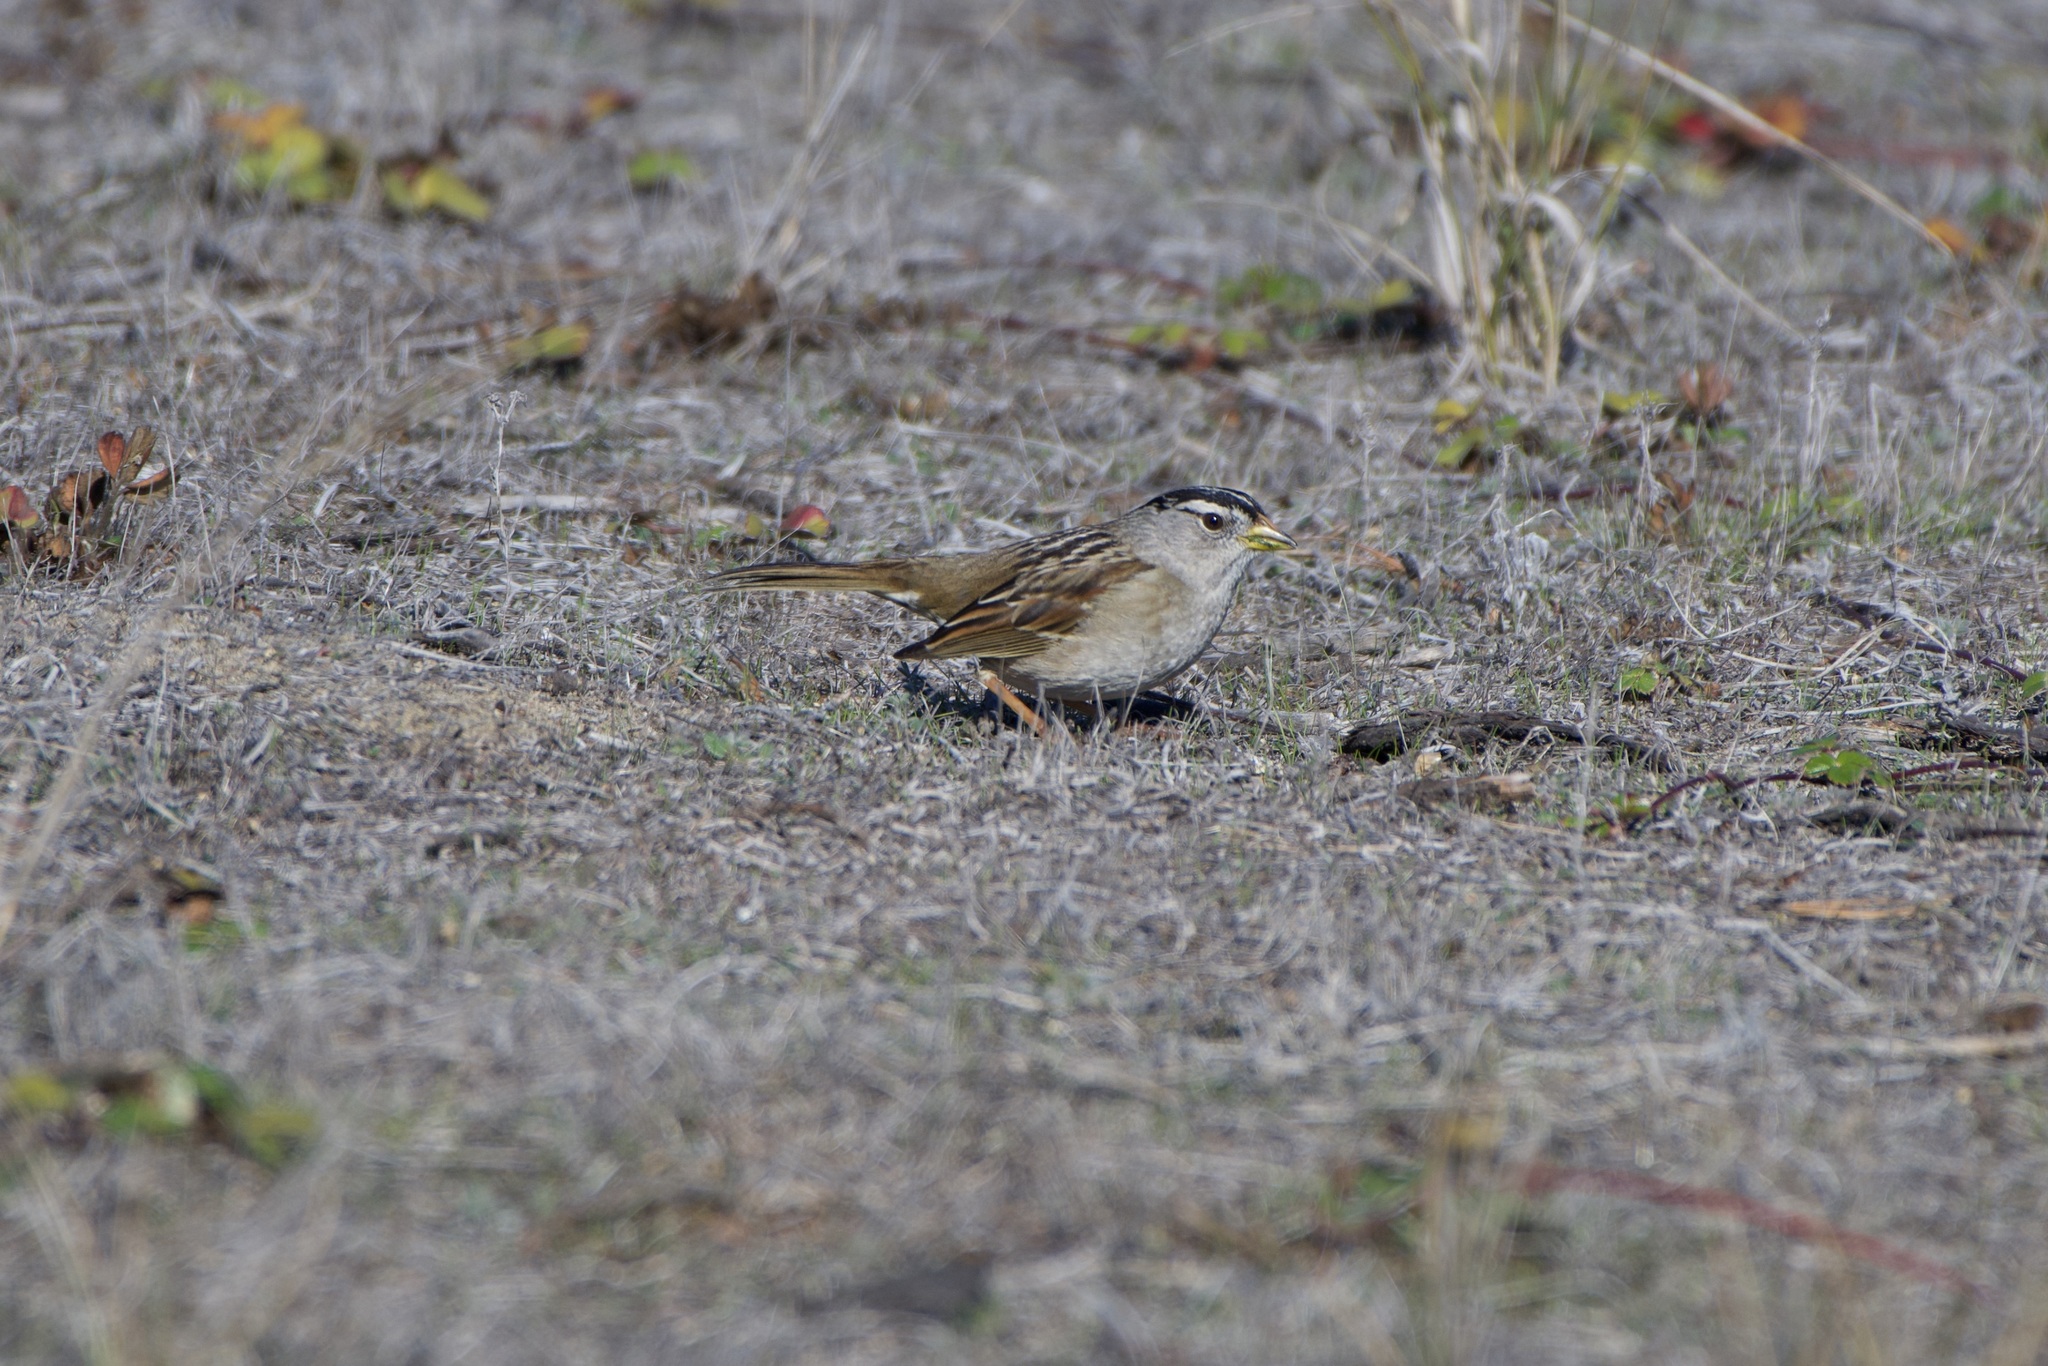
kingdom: Animalia
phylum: Chordata
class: Aves
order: Passeriformes
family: Passerellidae
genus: Zonotrichia
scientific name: Zonotrichia leucophrys
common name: White-crowned sparrow
